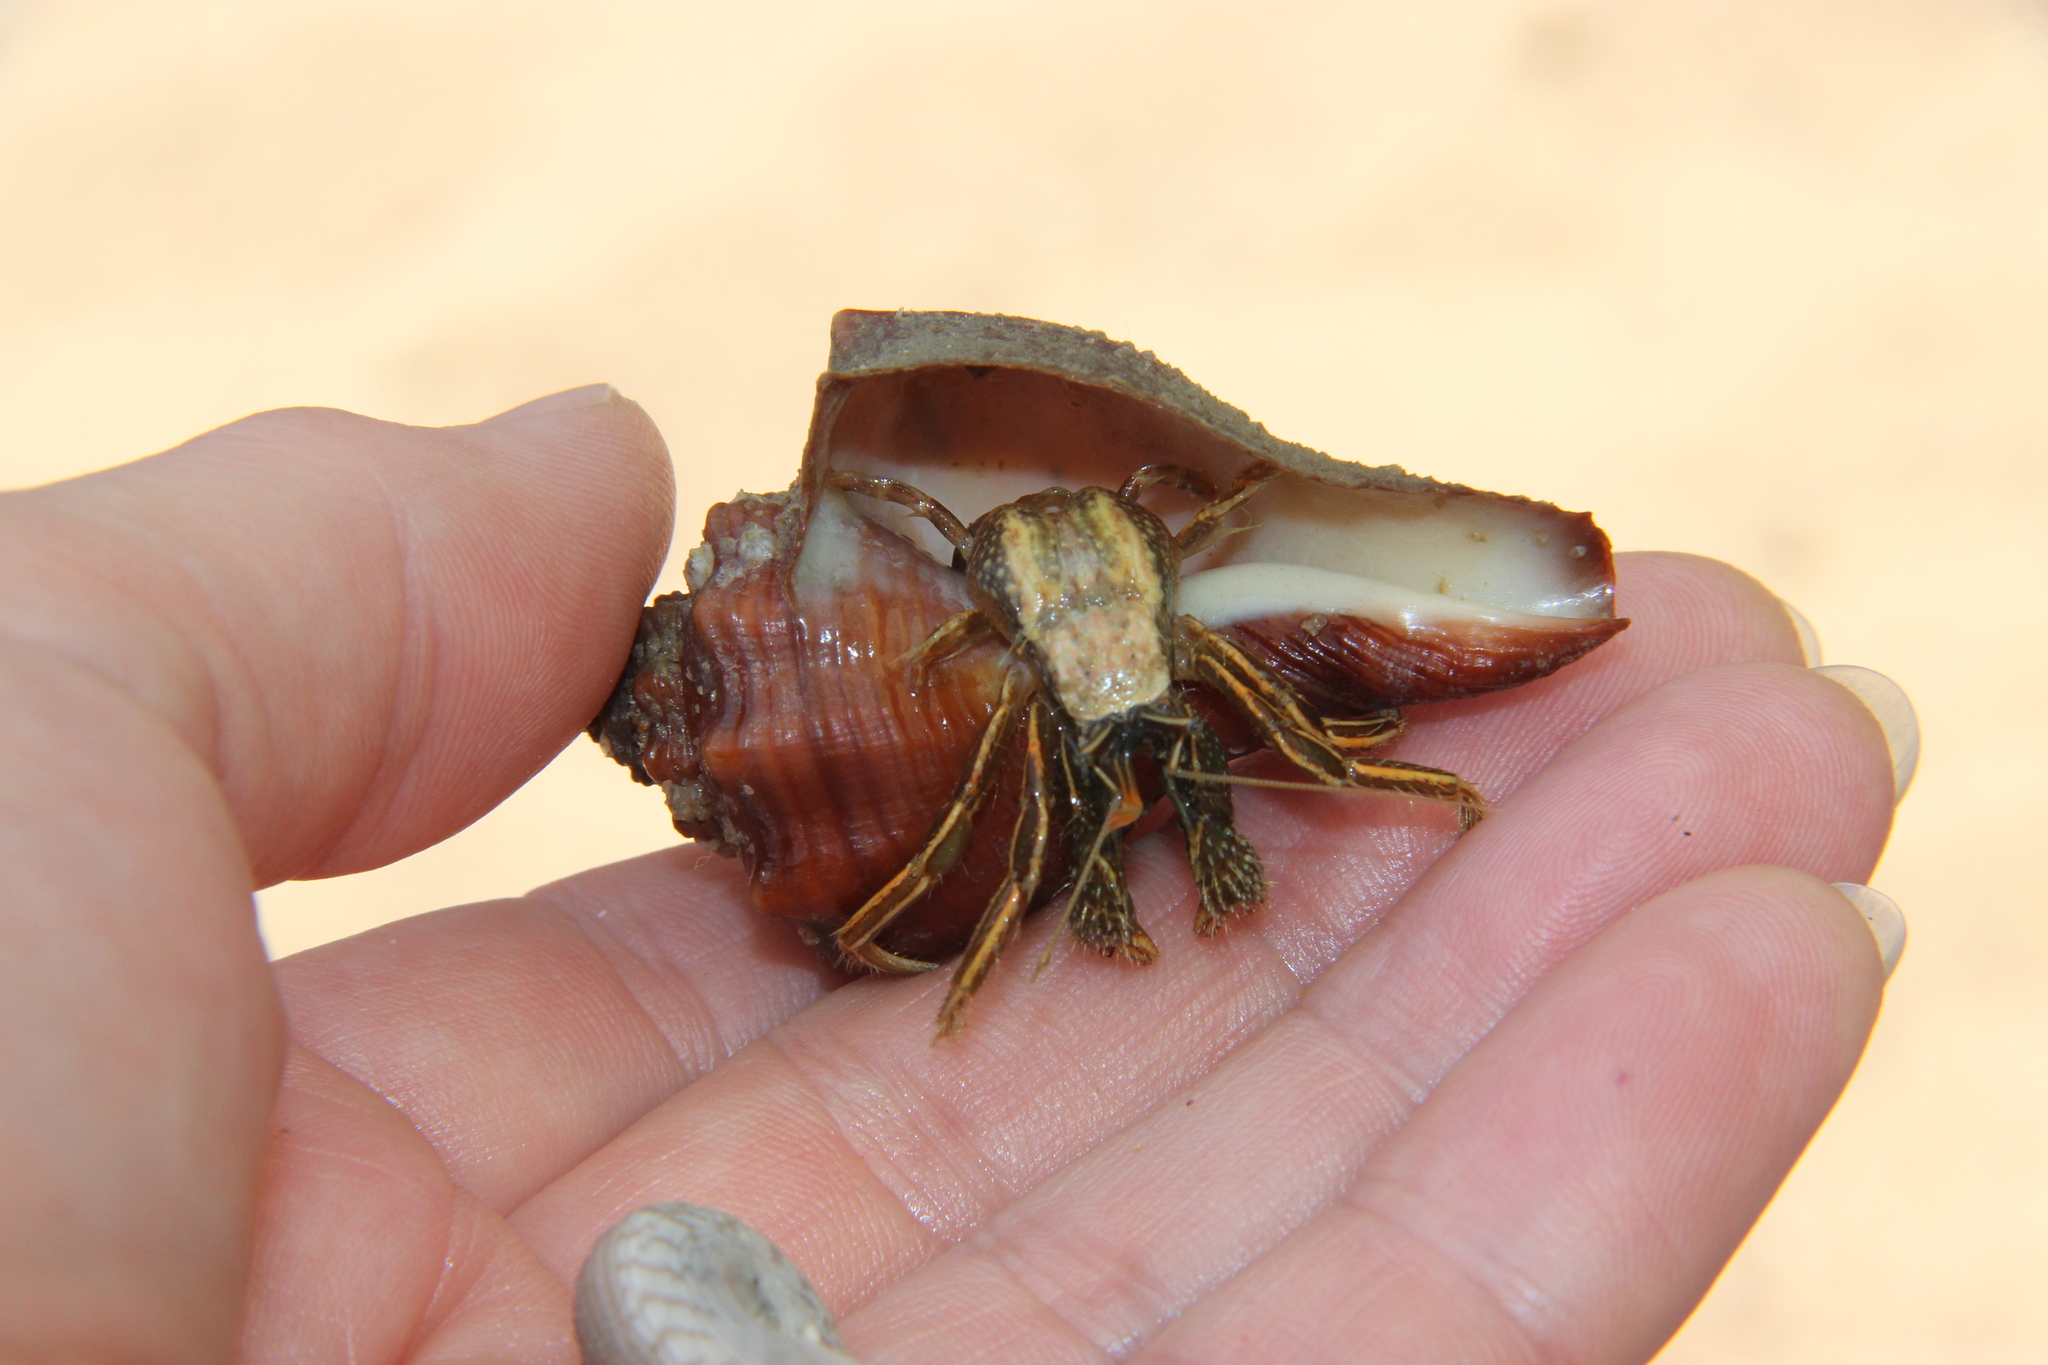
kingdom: Animalia
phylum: Arthropoda
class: Malacostraca
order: Decapoda
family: Diogenidae
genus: Clibanarius
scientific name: Clibanarius infraspinatus
